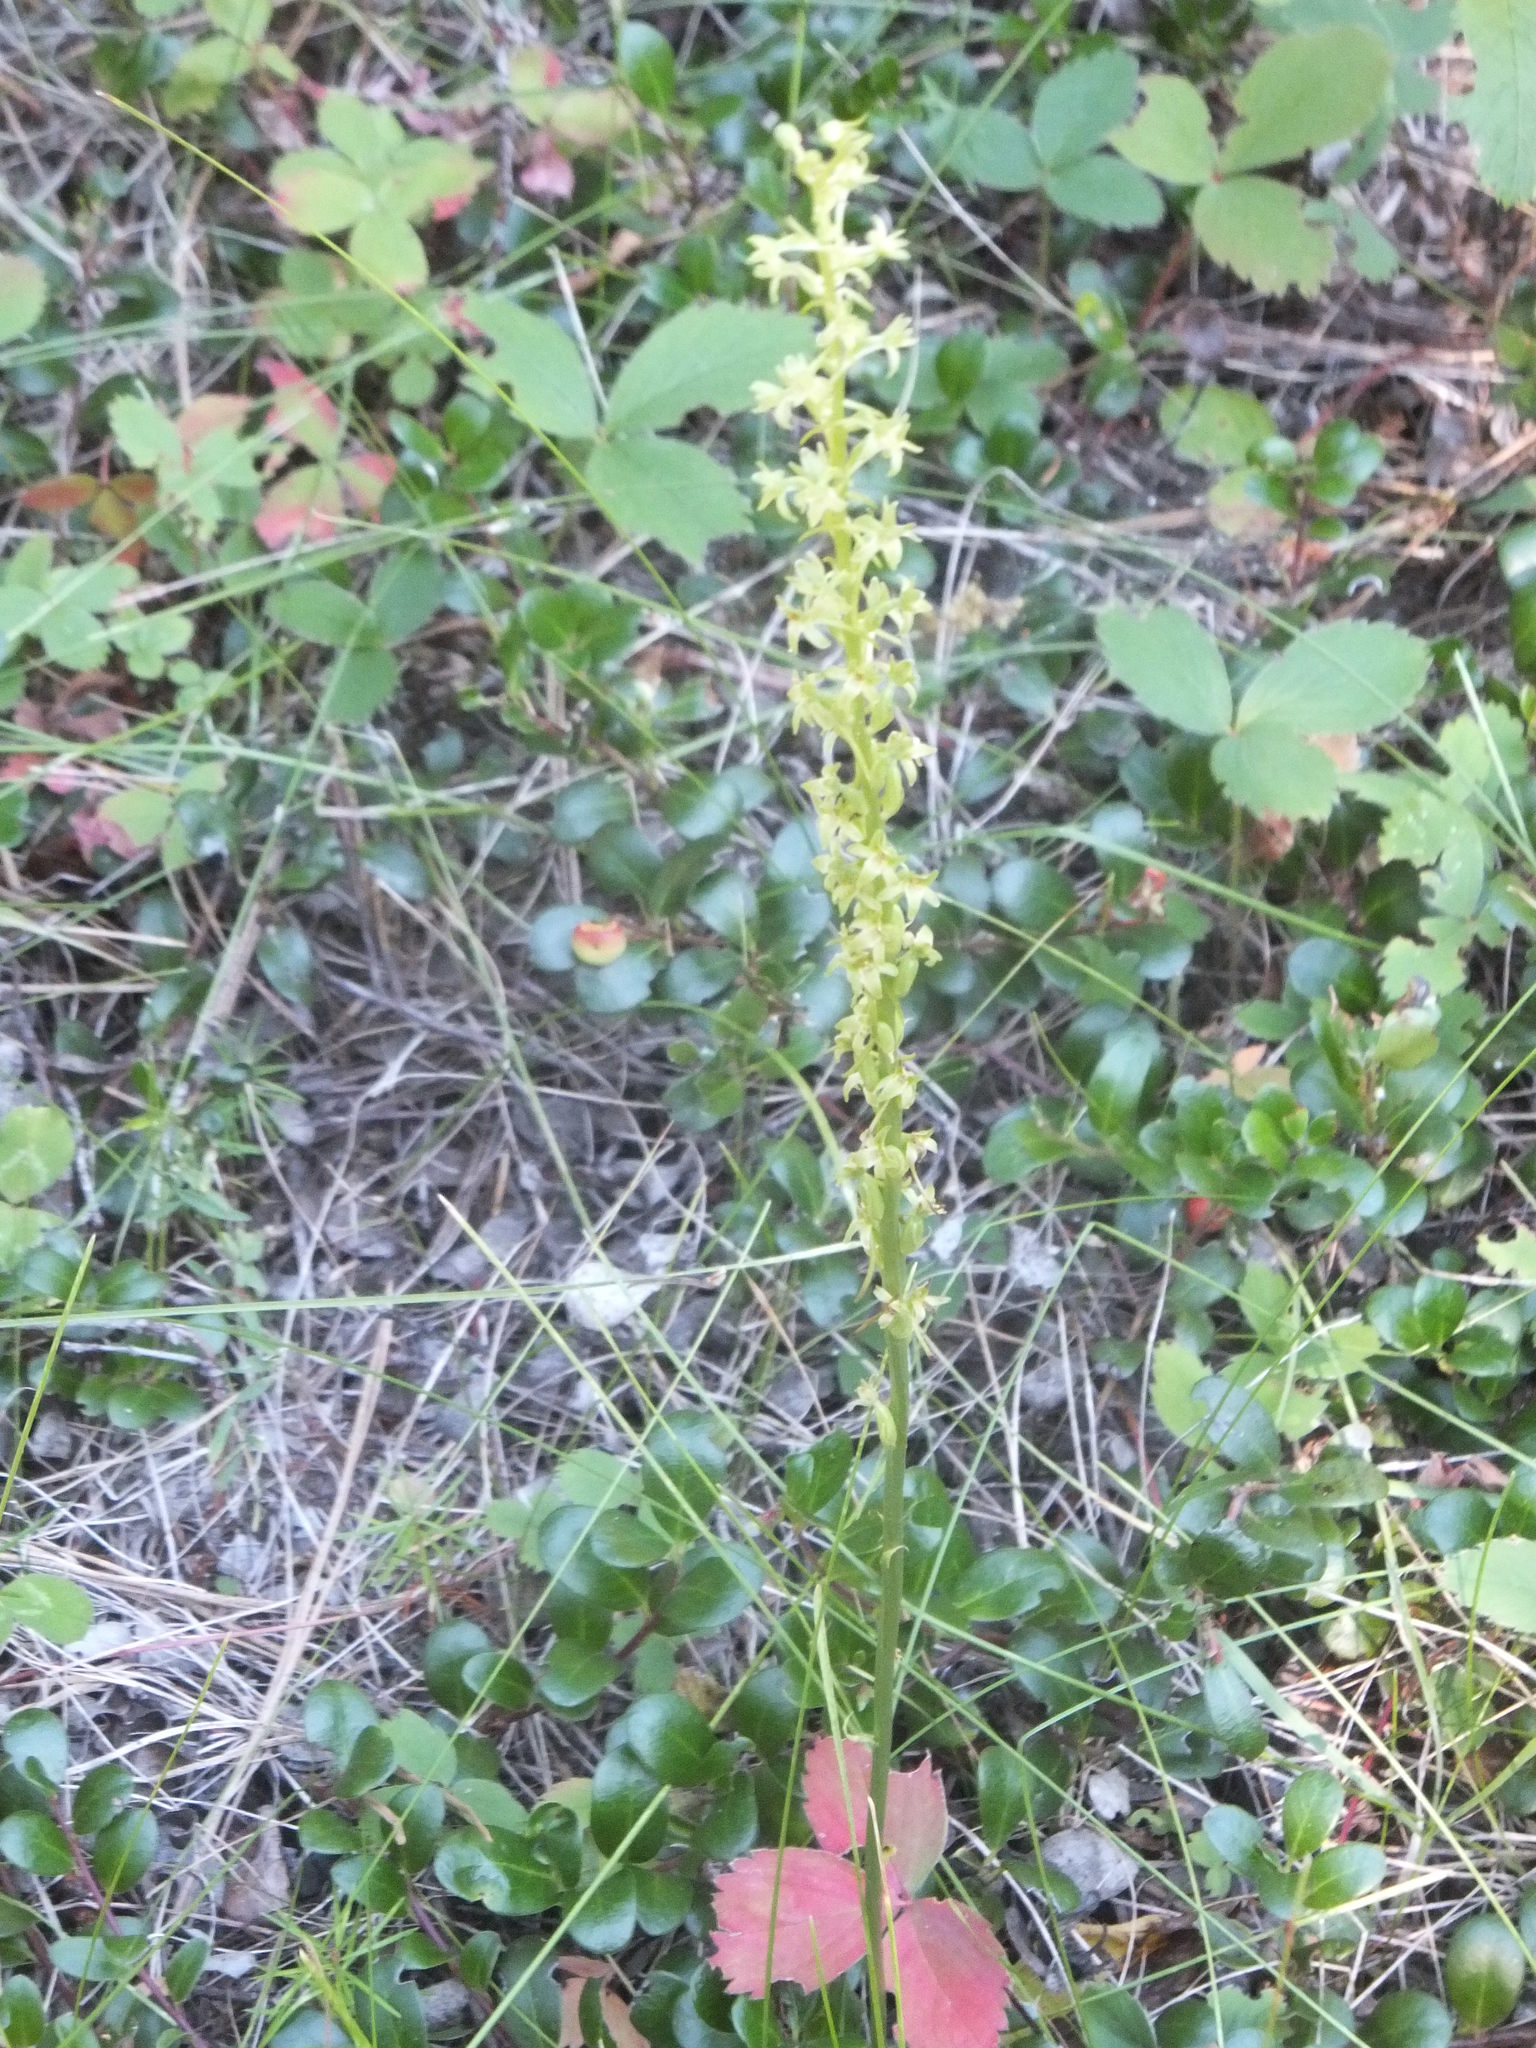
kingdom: Plantae
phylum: Tracheophyta
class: Liliopsida
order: Asparagales
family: Orchidaceae
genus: Platanthera
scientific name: Platanthera elongata
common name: Dense-flowered rein orchid
